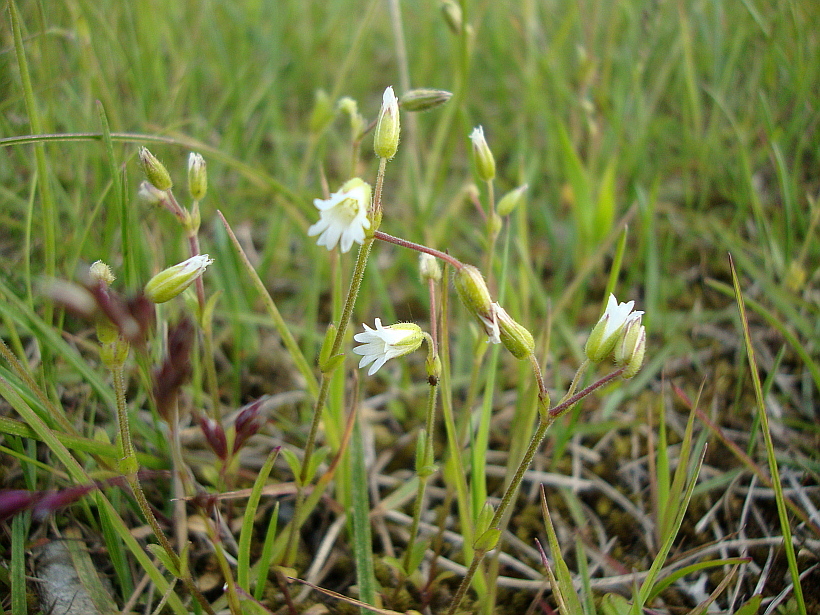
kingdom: Plantae
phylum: Tracheophyta
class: Magnoliopsida
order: Caryophyllales
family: Caryophyllaceae
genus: Cerastium
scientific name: Cerastium alpinum
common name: Alpine mouse-ear
